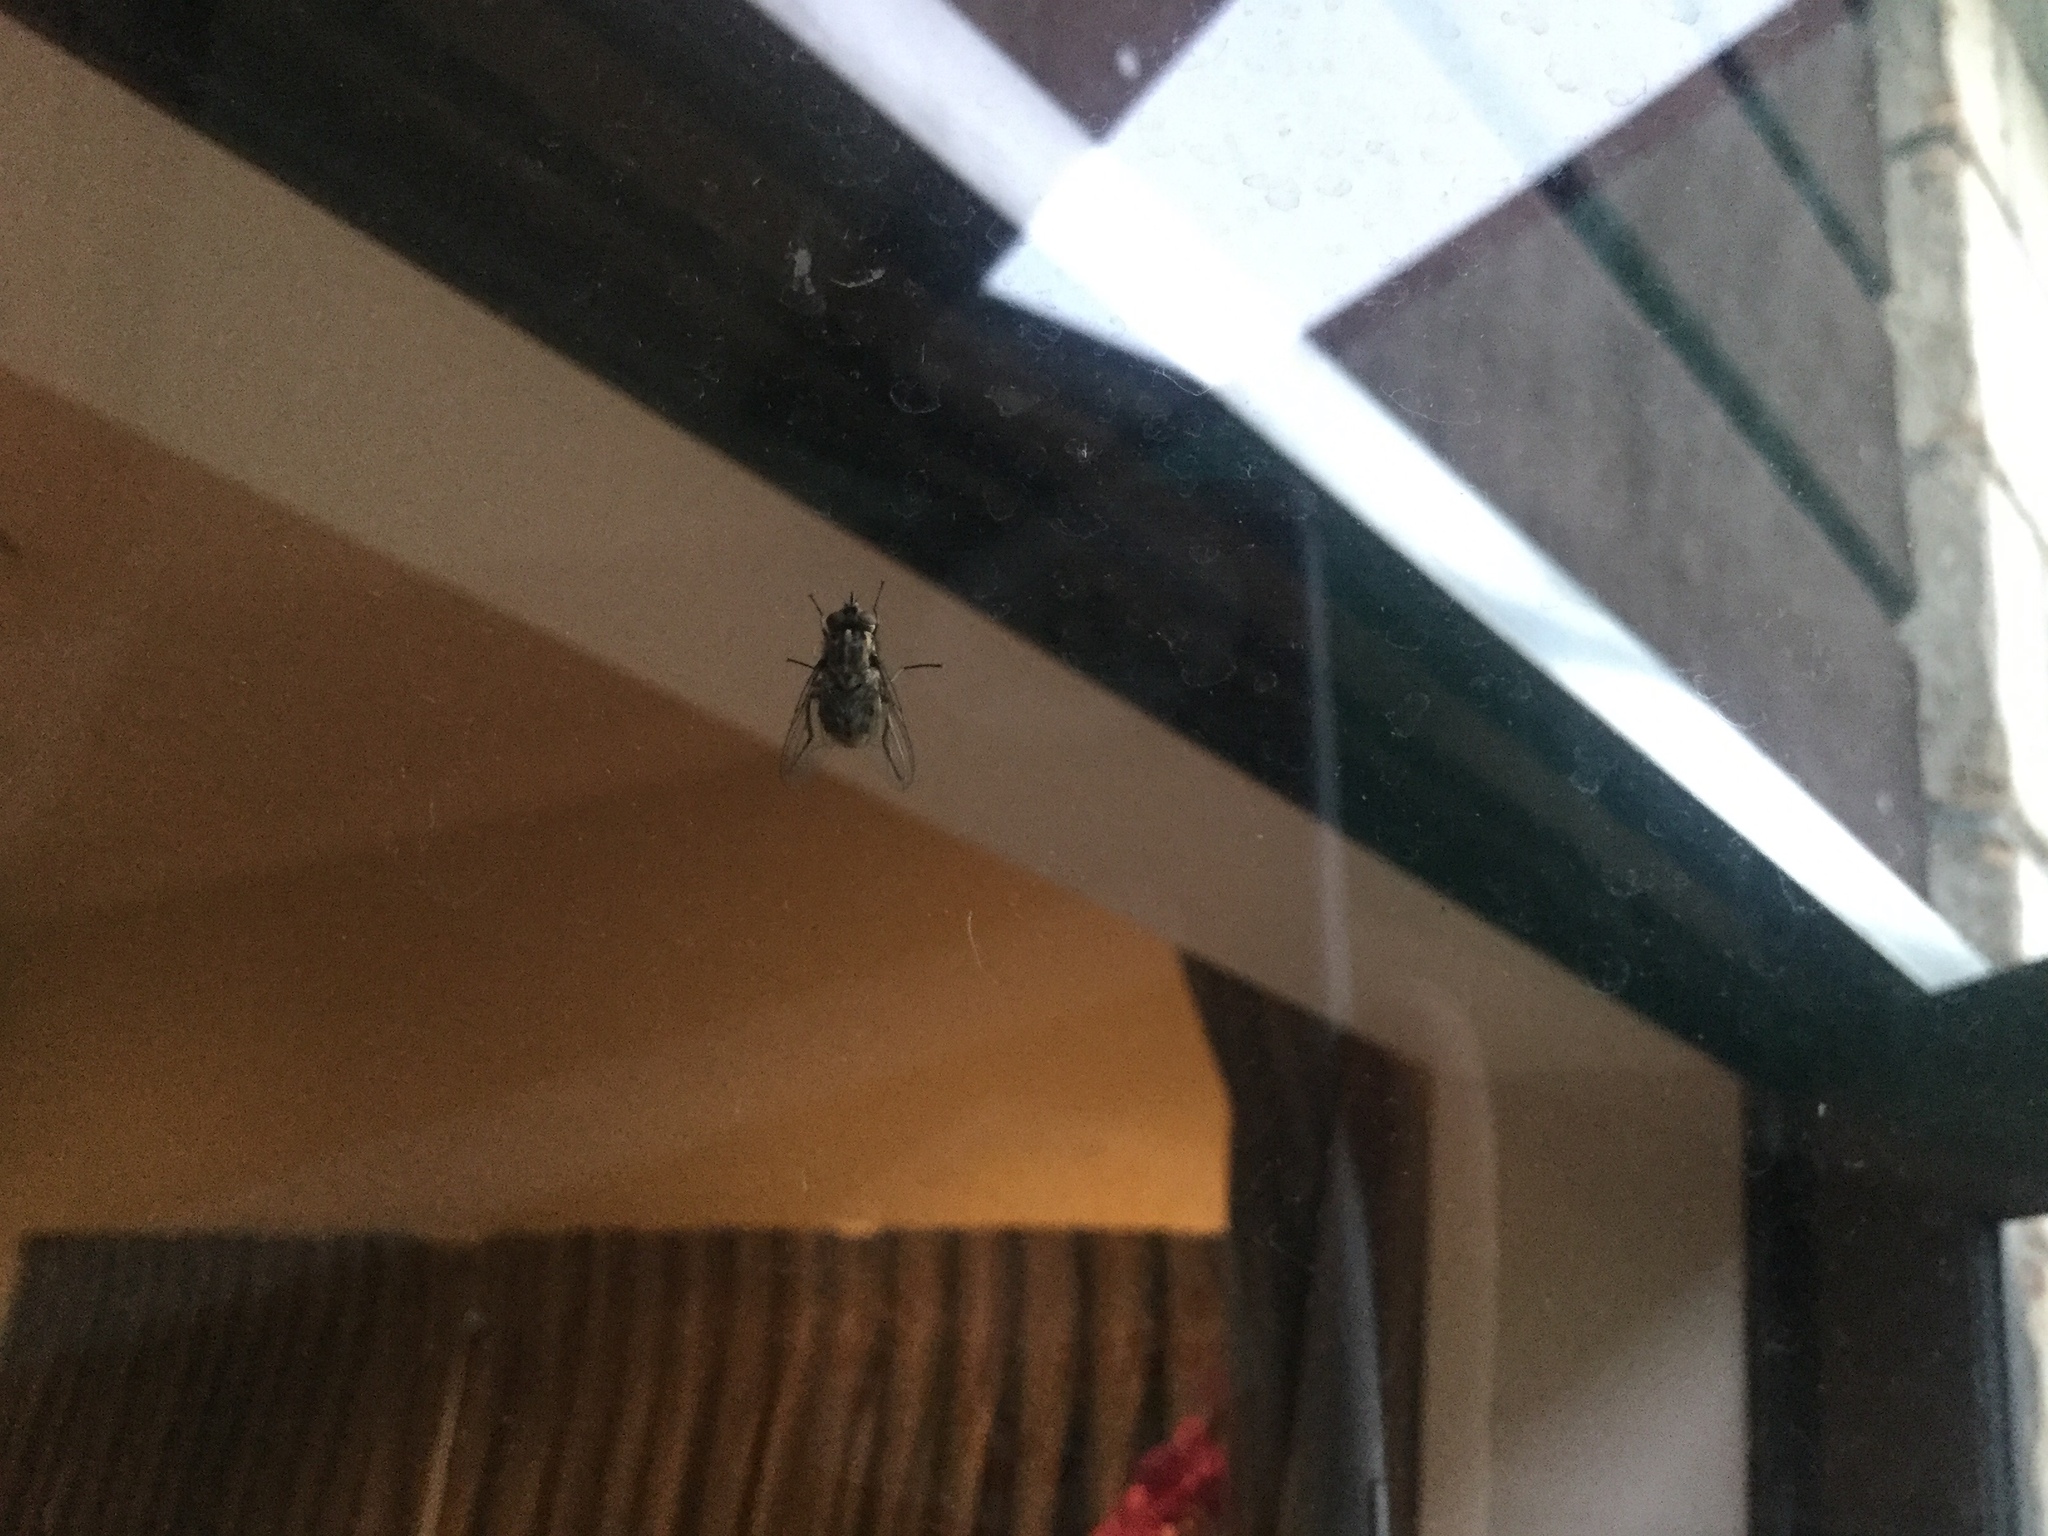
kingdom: Animalia
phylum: Arthropoda
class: Insecta
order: Diptera
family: Muscidae
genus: Stomoxys
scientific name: Stomoxys calcitrans
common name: Stable fly
